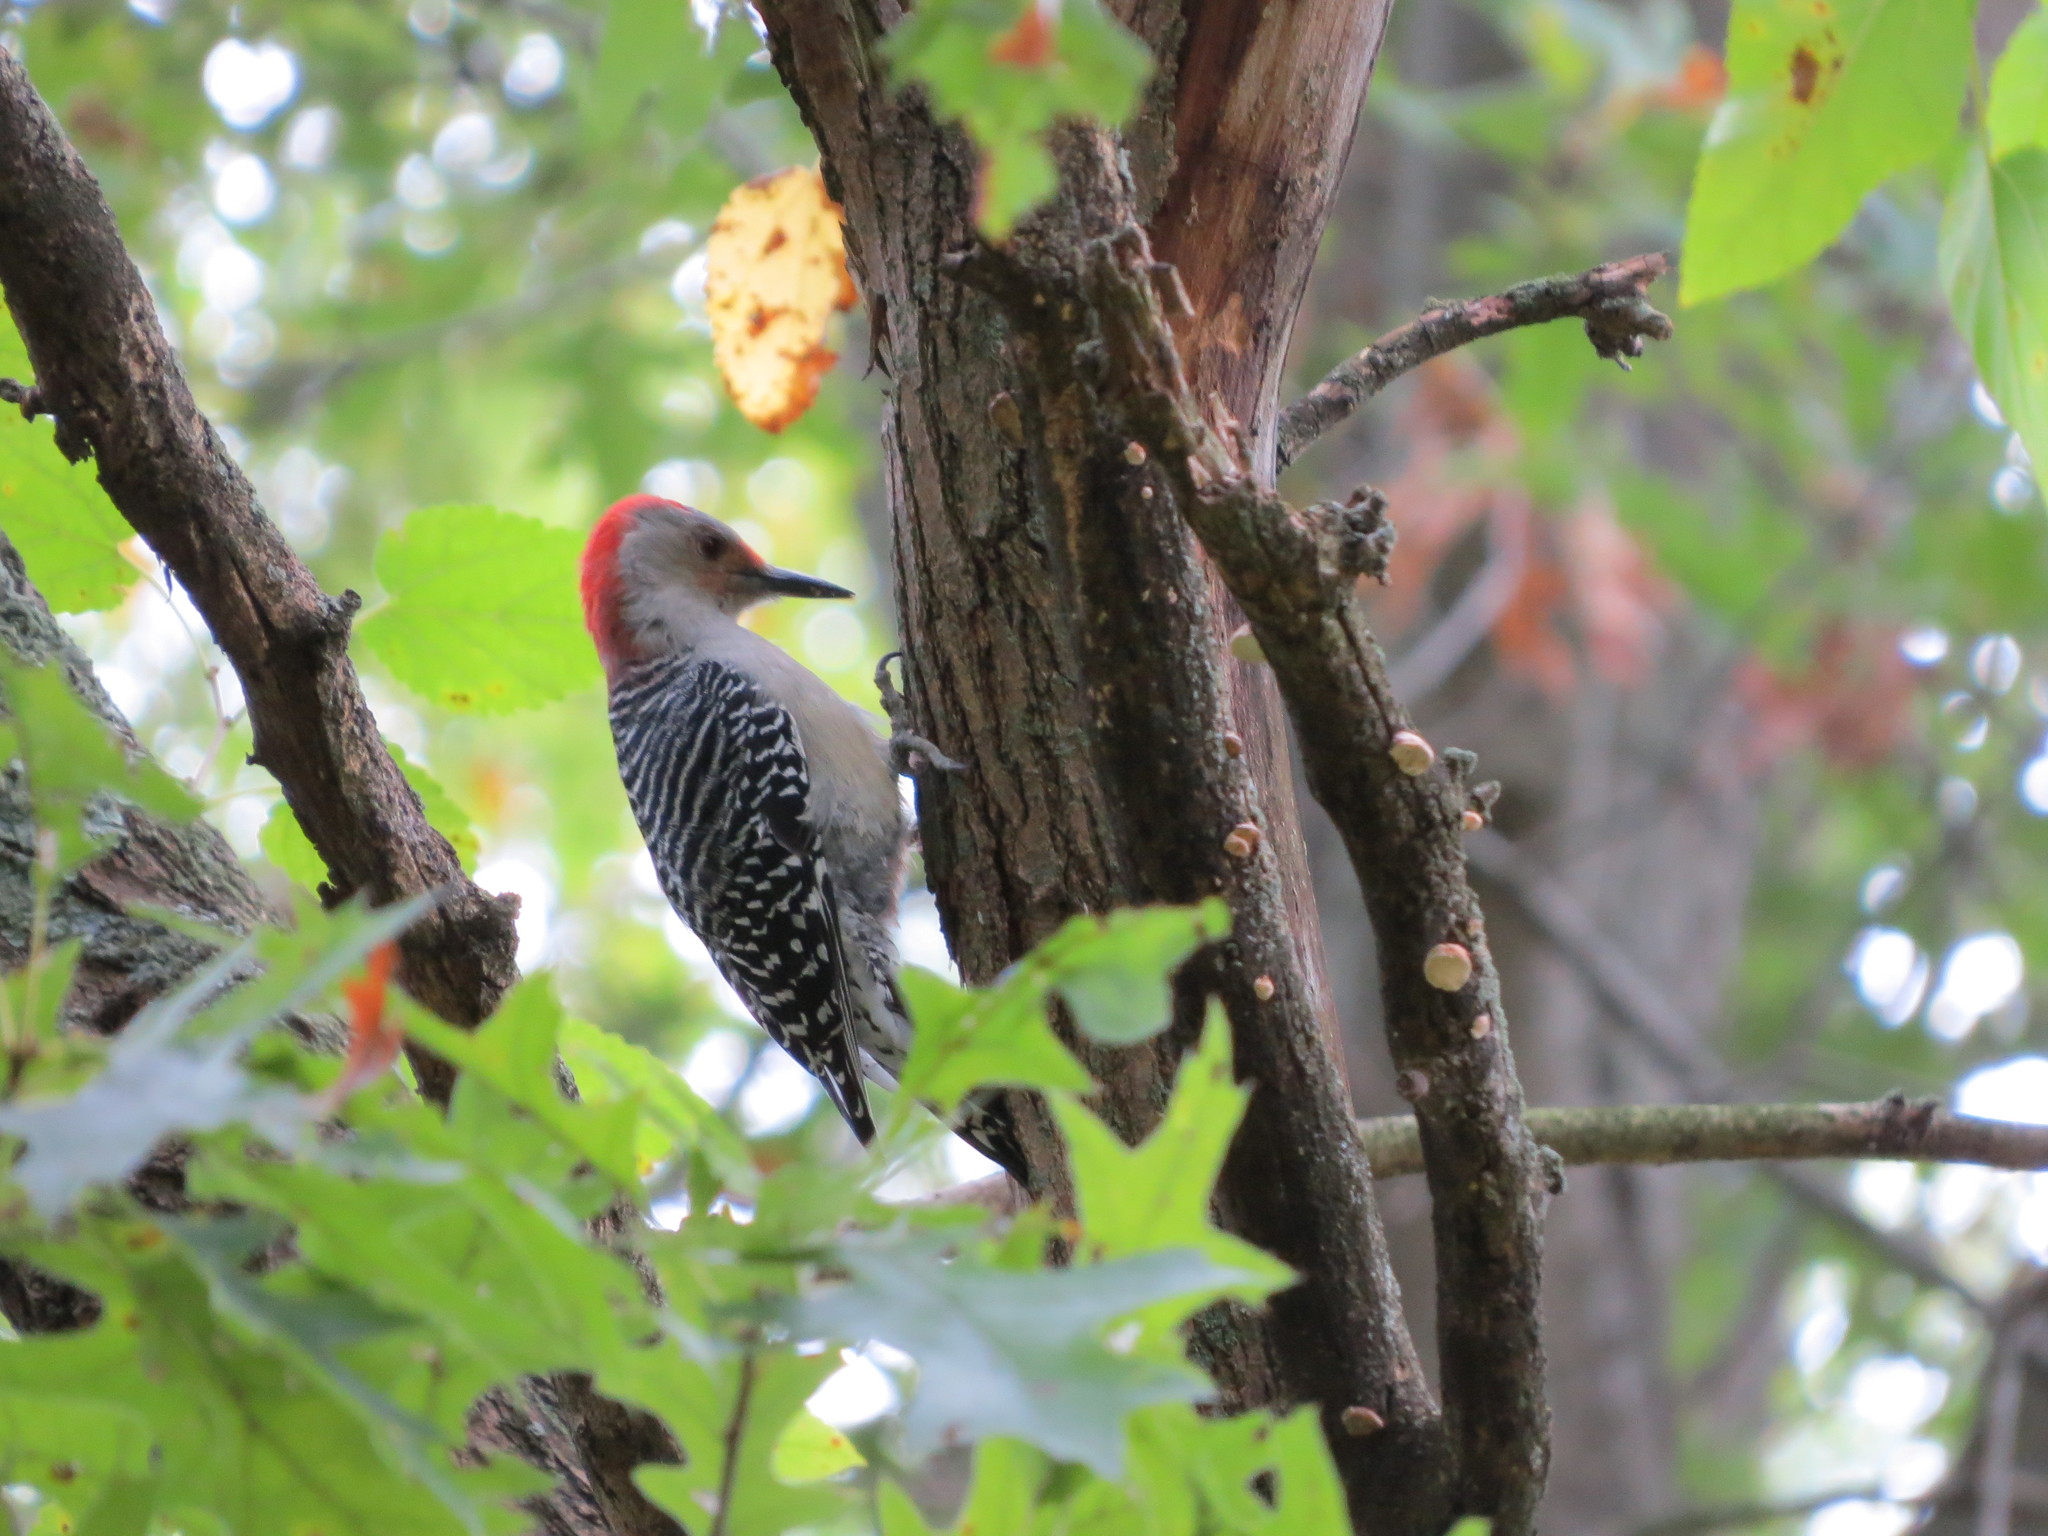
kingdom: Animalia
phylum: Chordata
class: Aves
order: Piciformes
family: Picidae
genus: Melanerpes
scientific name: Melanerpes carolinus
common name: Red-bellied woodpecker
